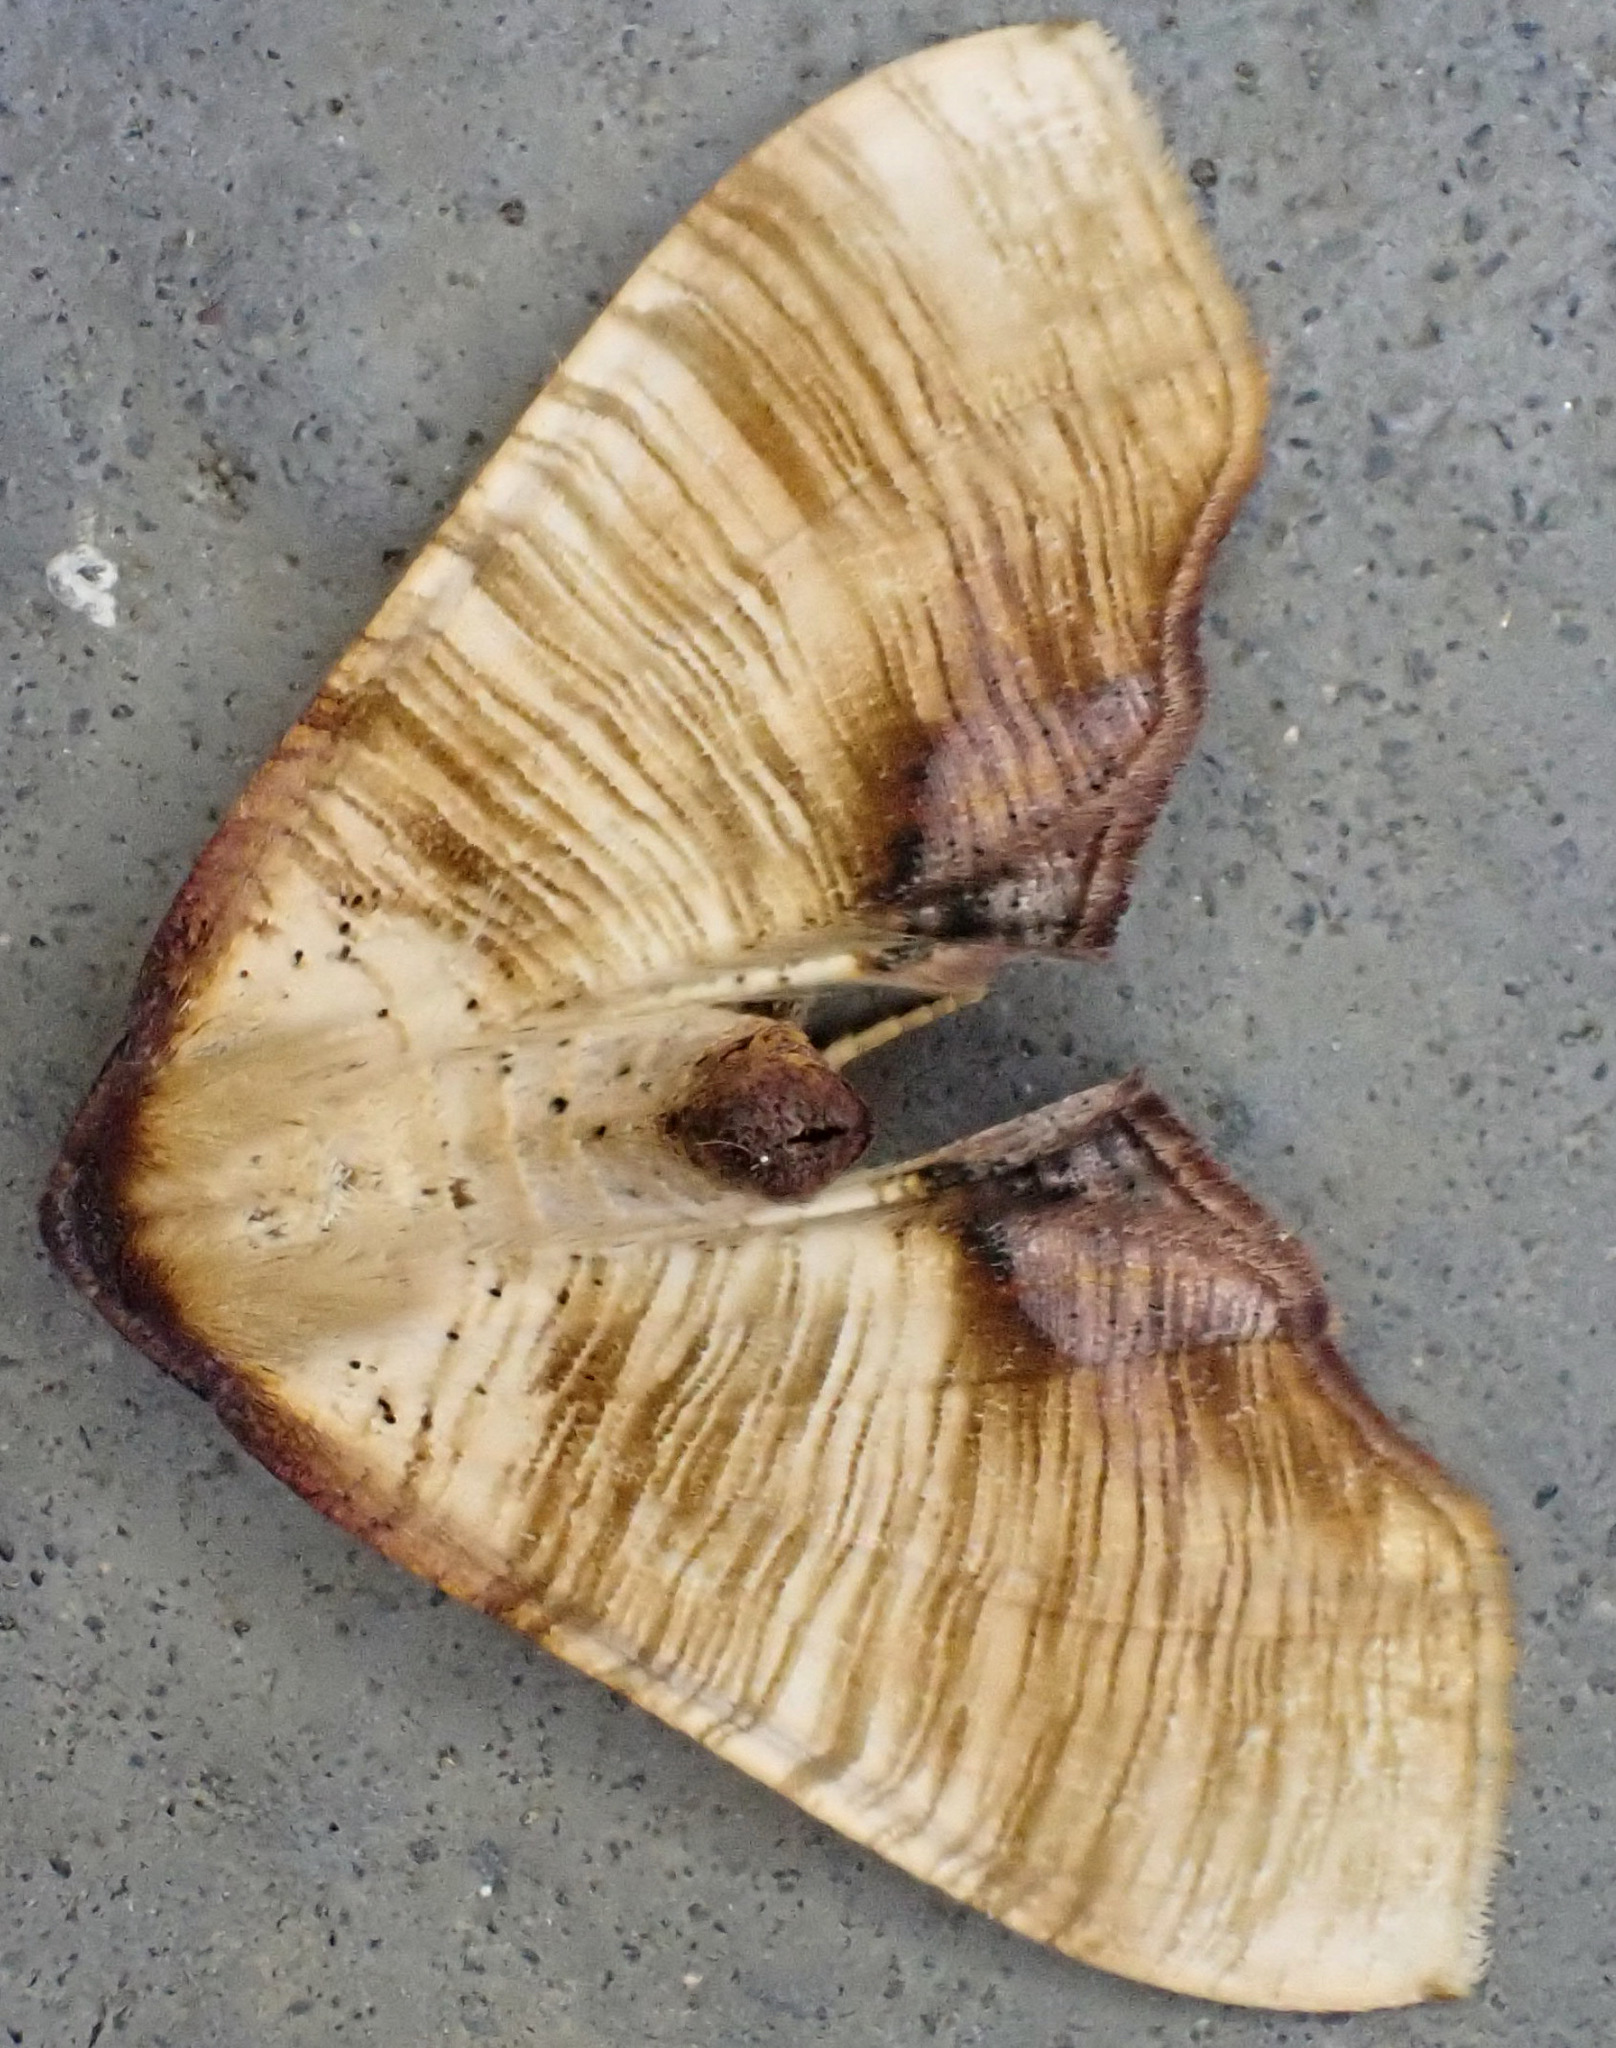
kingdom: Animalia
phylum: Arthropoda
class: Insecta
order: Lepidoptera
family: Geometridae
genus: Plagodis
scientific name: Plagodis dolabraria
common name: Scorched wing
